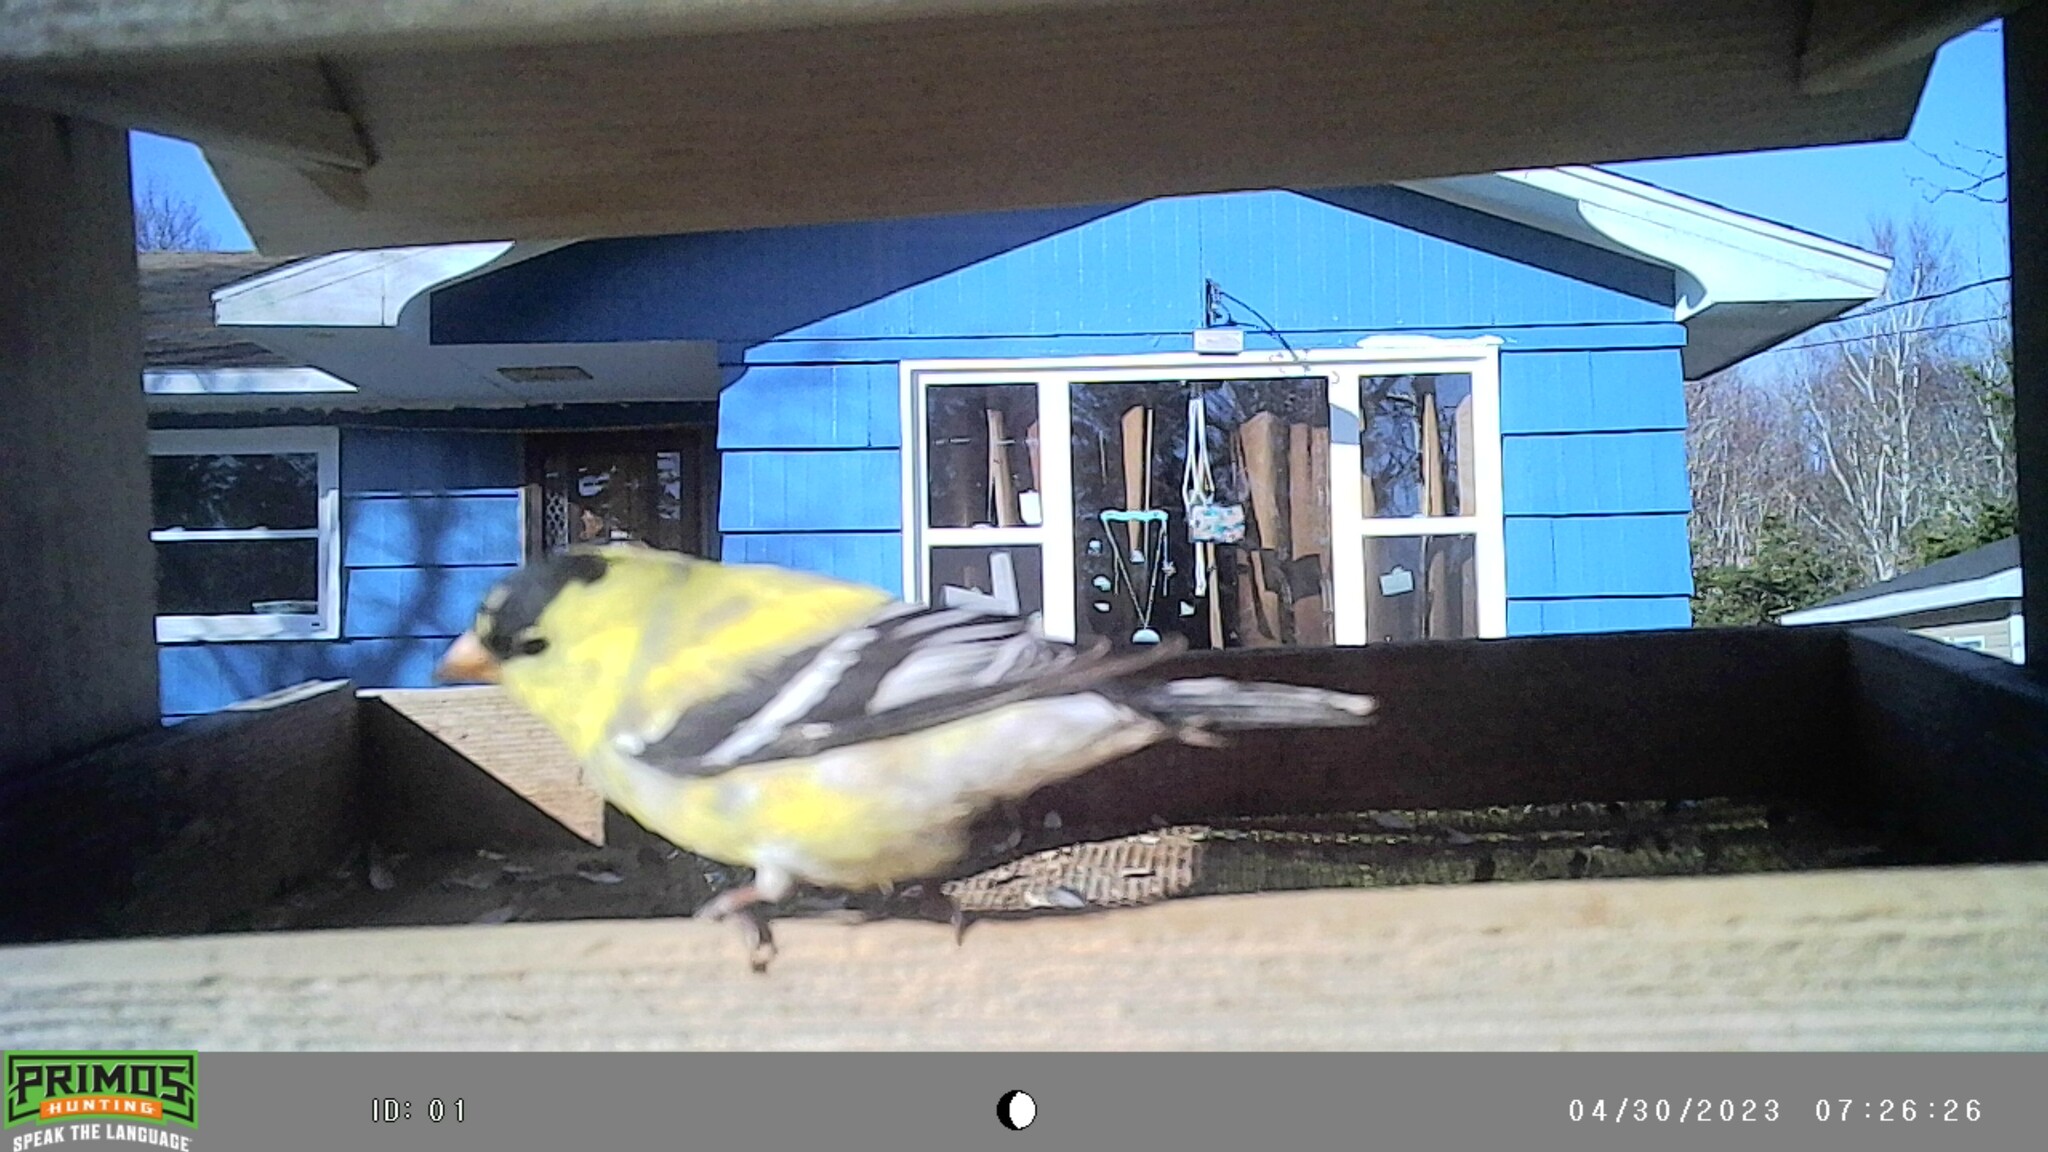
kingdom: Animalia
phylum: Chordata
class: Aves
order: Passeriformes
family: Fringillidae
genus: Spinus
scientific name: Spinus tristis
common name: American goldfinch
